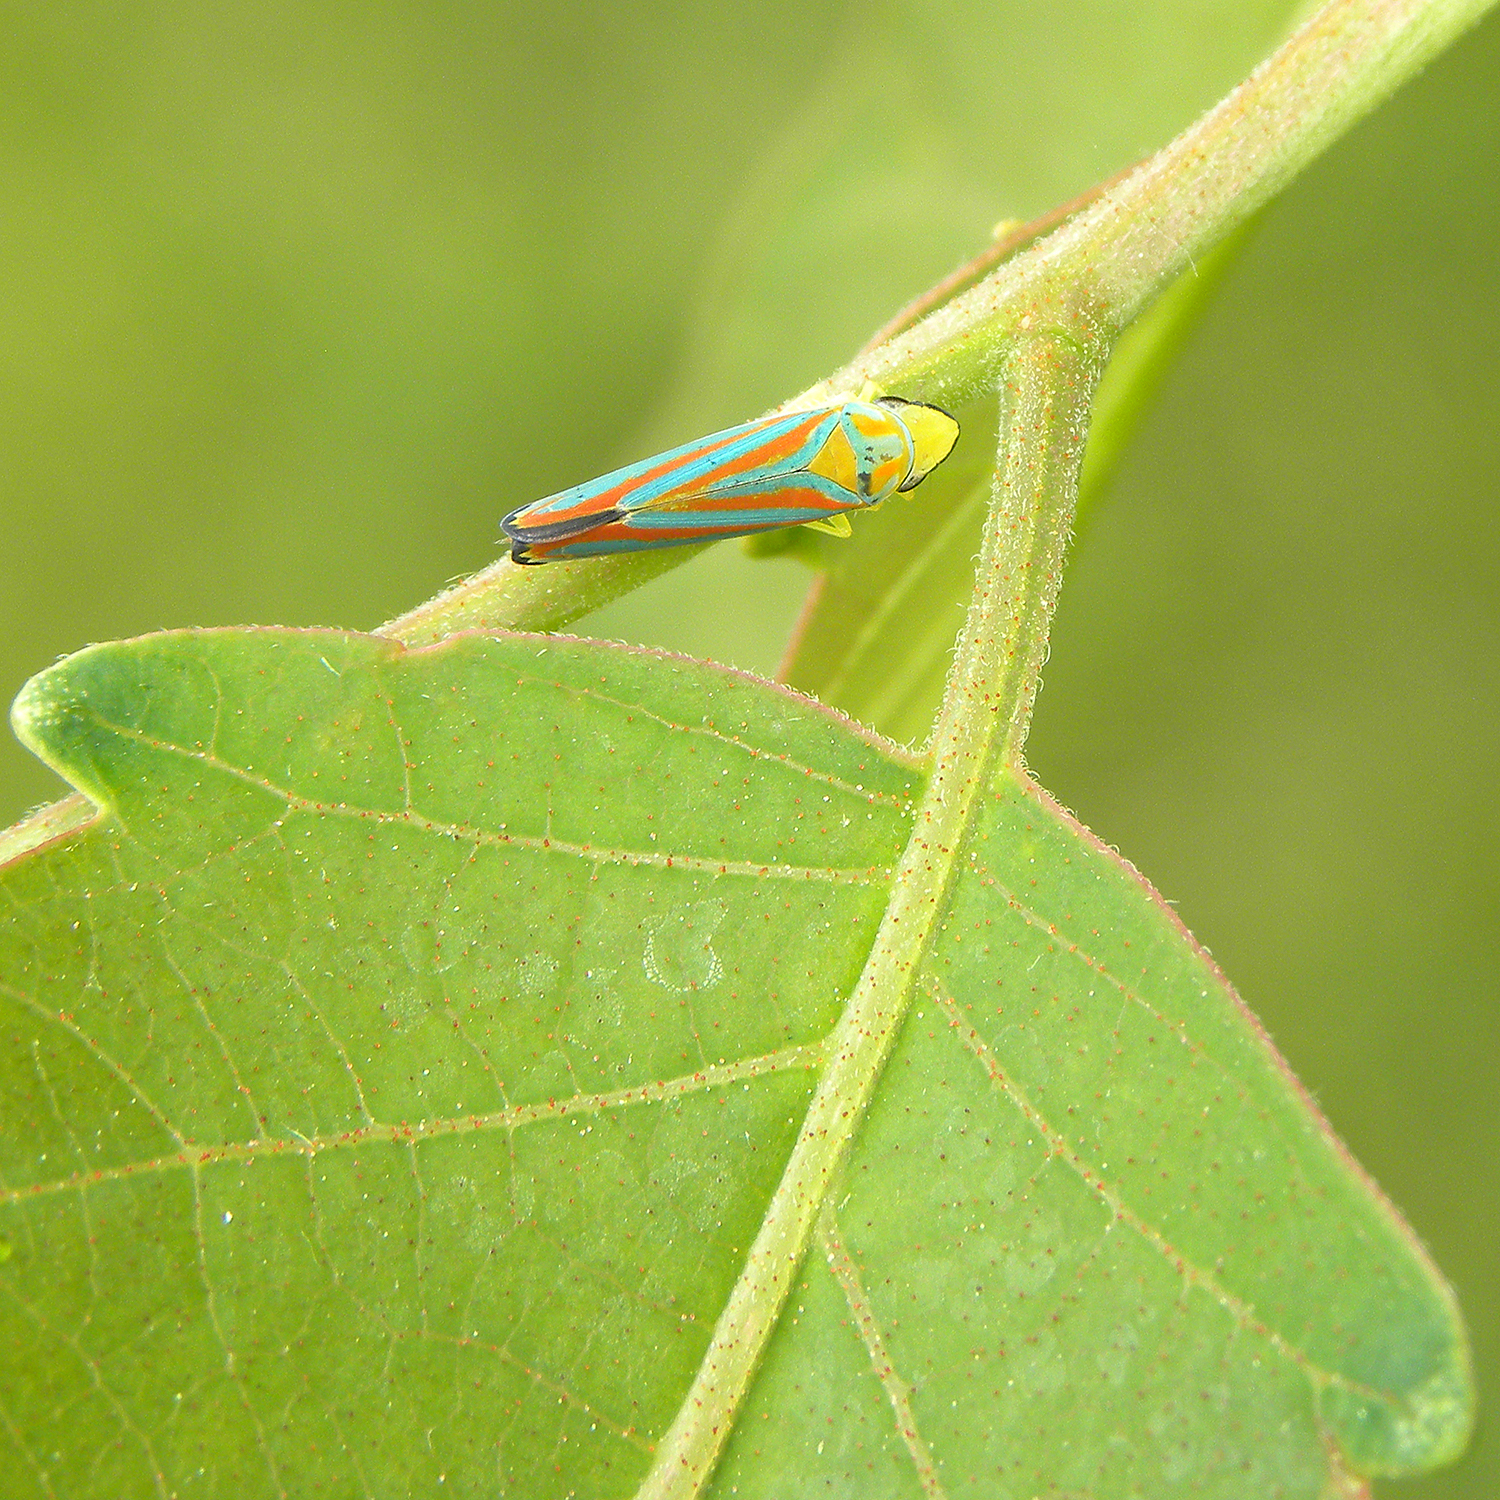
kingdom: Animalia
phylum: Arthropoda
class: Insecta
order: Hemiptera
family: Cicadellidae
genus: Graphocephala
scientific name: Graphocephala coccinea
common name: Candy-striped leafhopper
